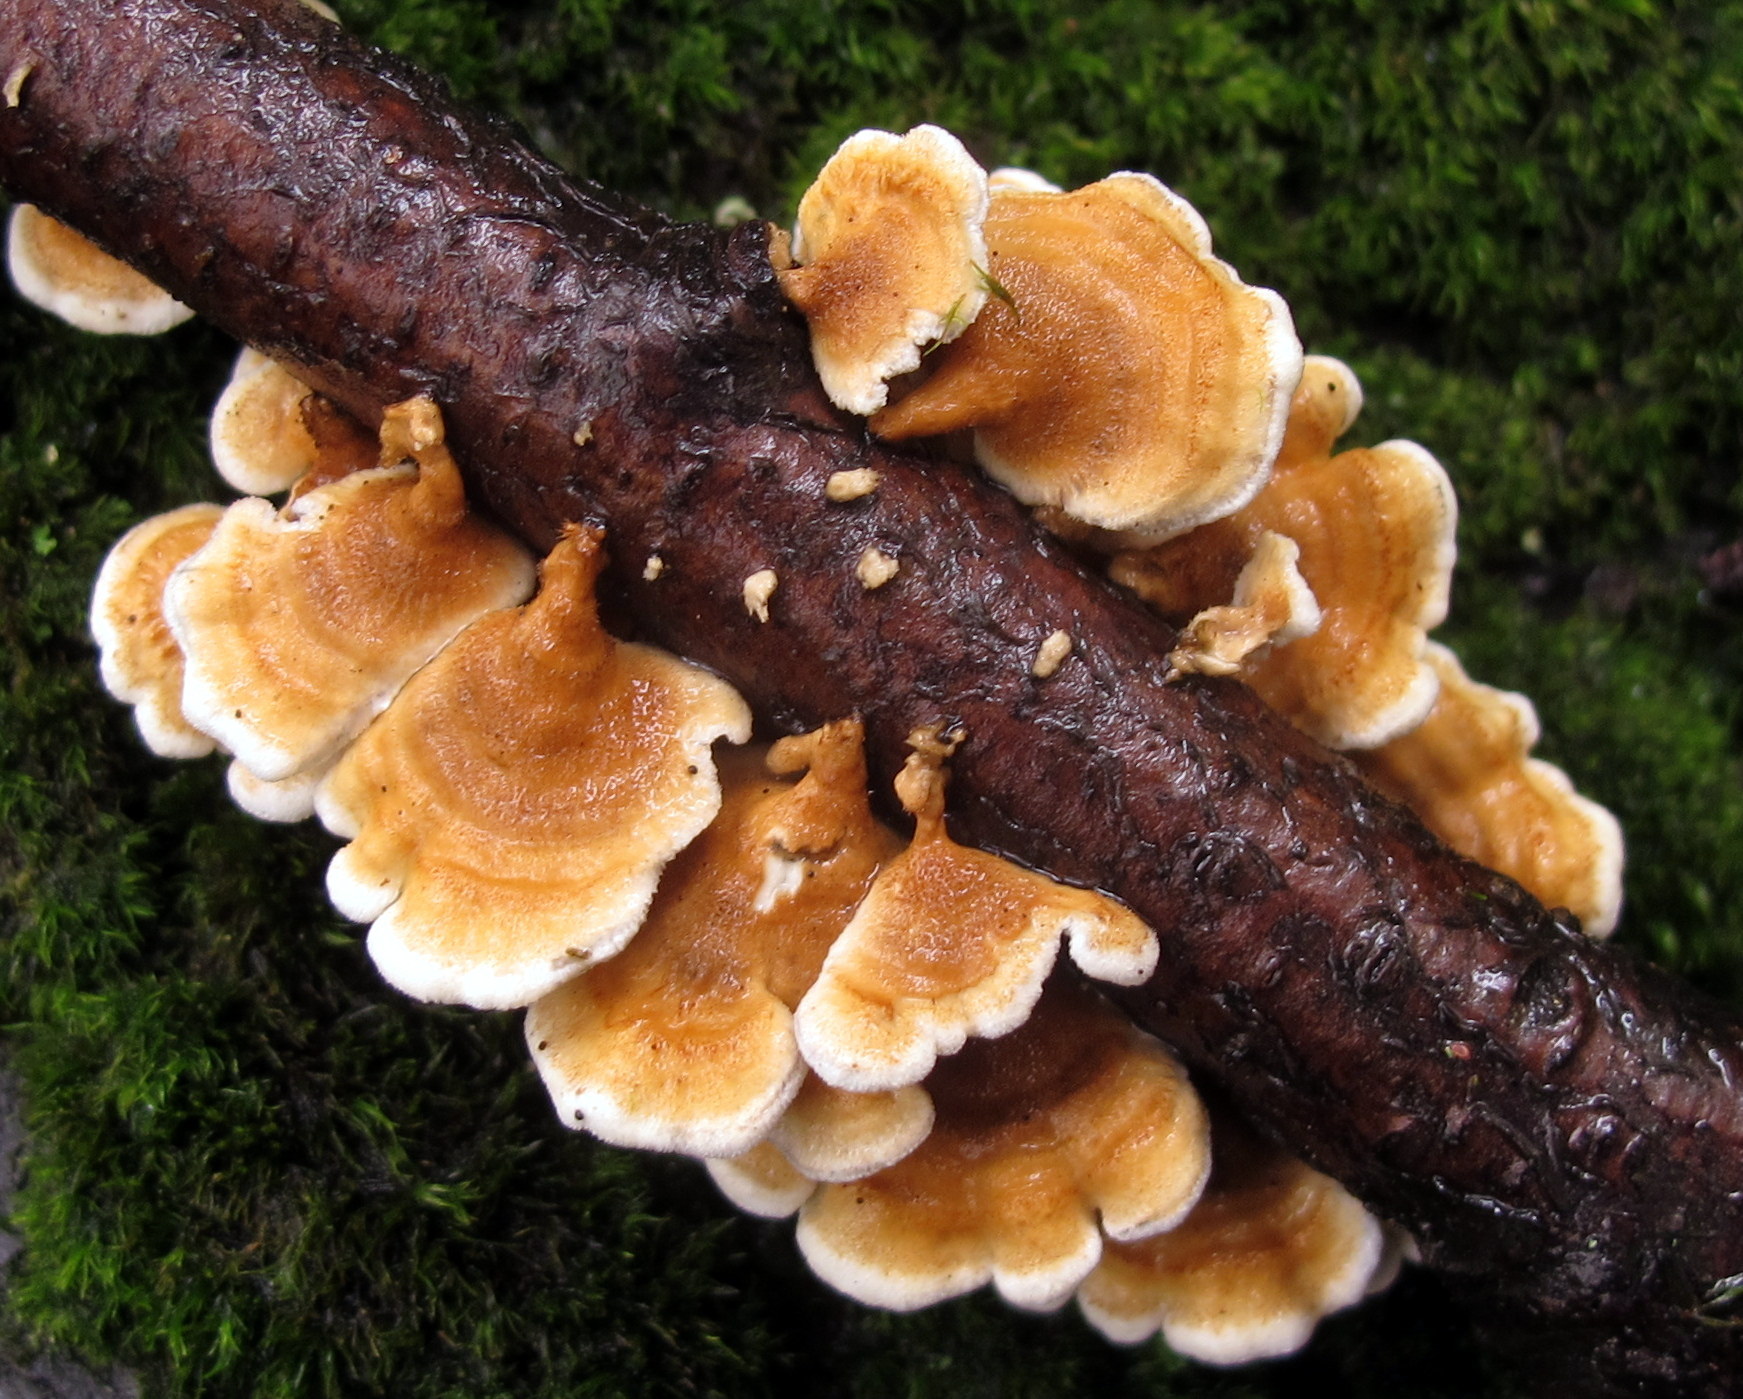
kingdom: Fungi
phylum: Basidiomycota
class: Agaricomycetes
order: Amylocorticiales
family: Amylocorticiaceae
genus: Plicaturopsis
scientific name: Plicaturopsis crispa
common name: Crimped gill
